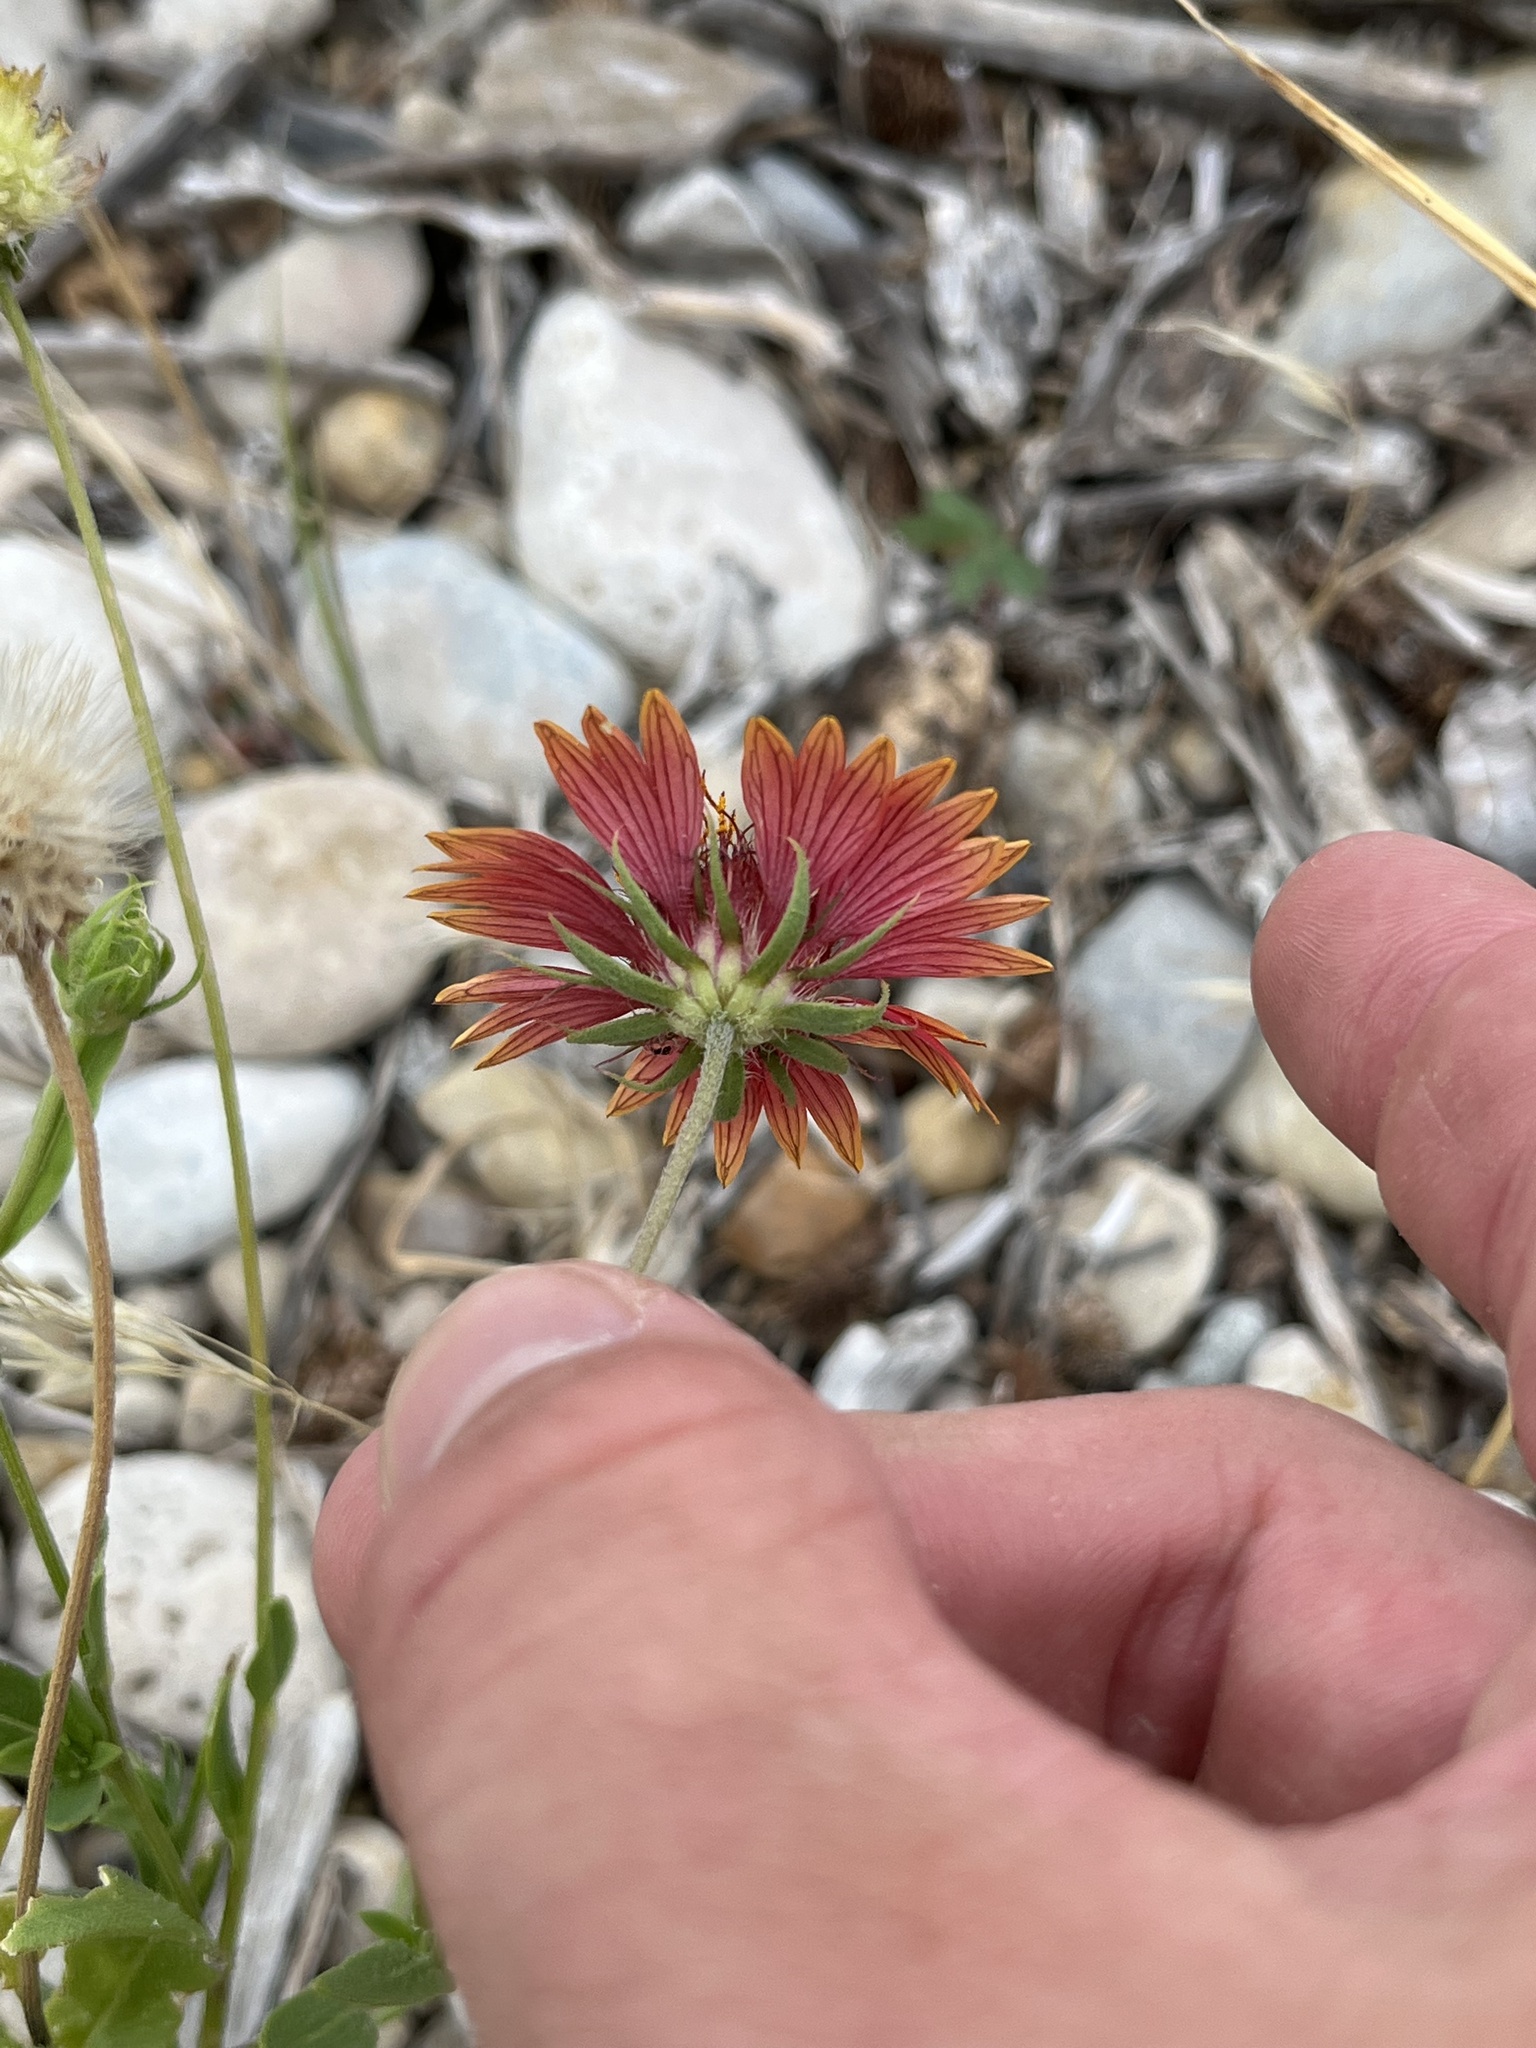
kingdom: Plantae
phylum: Tracheophyta
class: Magnoliopsida
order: Asterales
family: Asteraceae
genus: Gaillardia
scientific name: Gaillardia pulchella
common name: Firewheel
